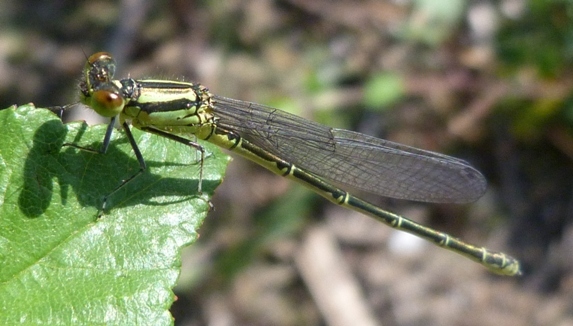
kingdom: Animalia
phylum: Arthropoda
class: Insecta
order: Odonata
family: Coenagrionidae
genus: Erythromma
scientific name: Erythromma viridulum
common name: Small red-eyed damselfly
